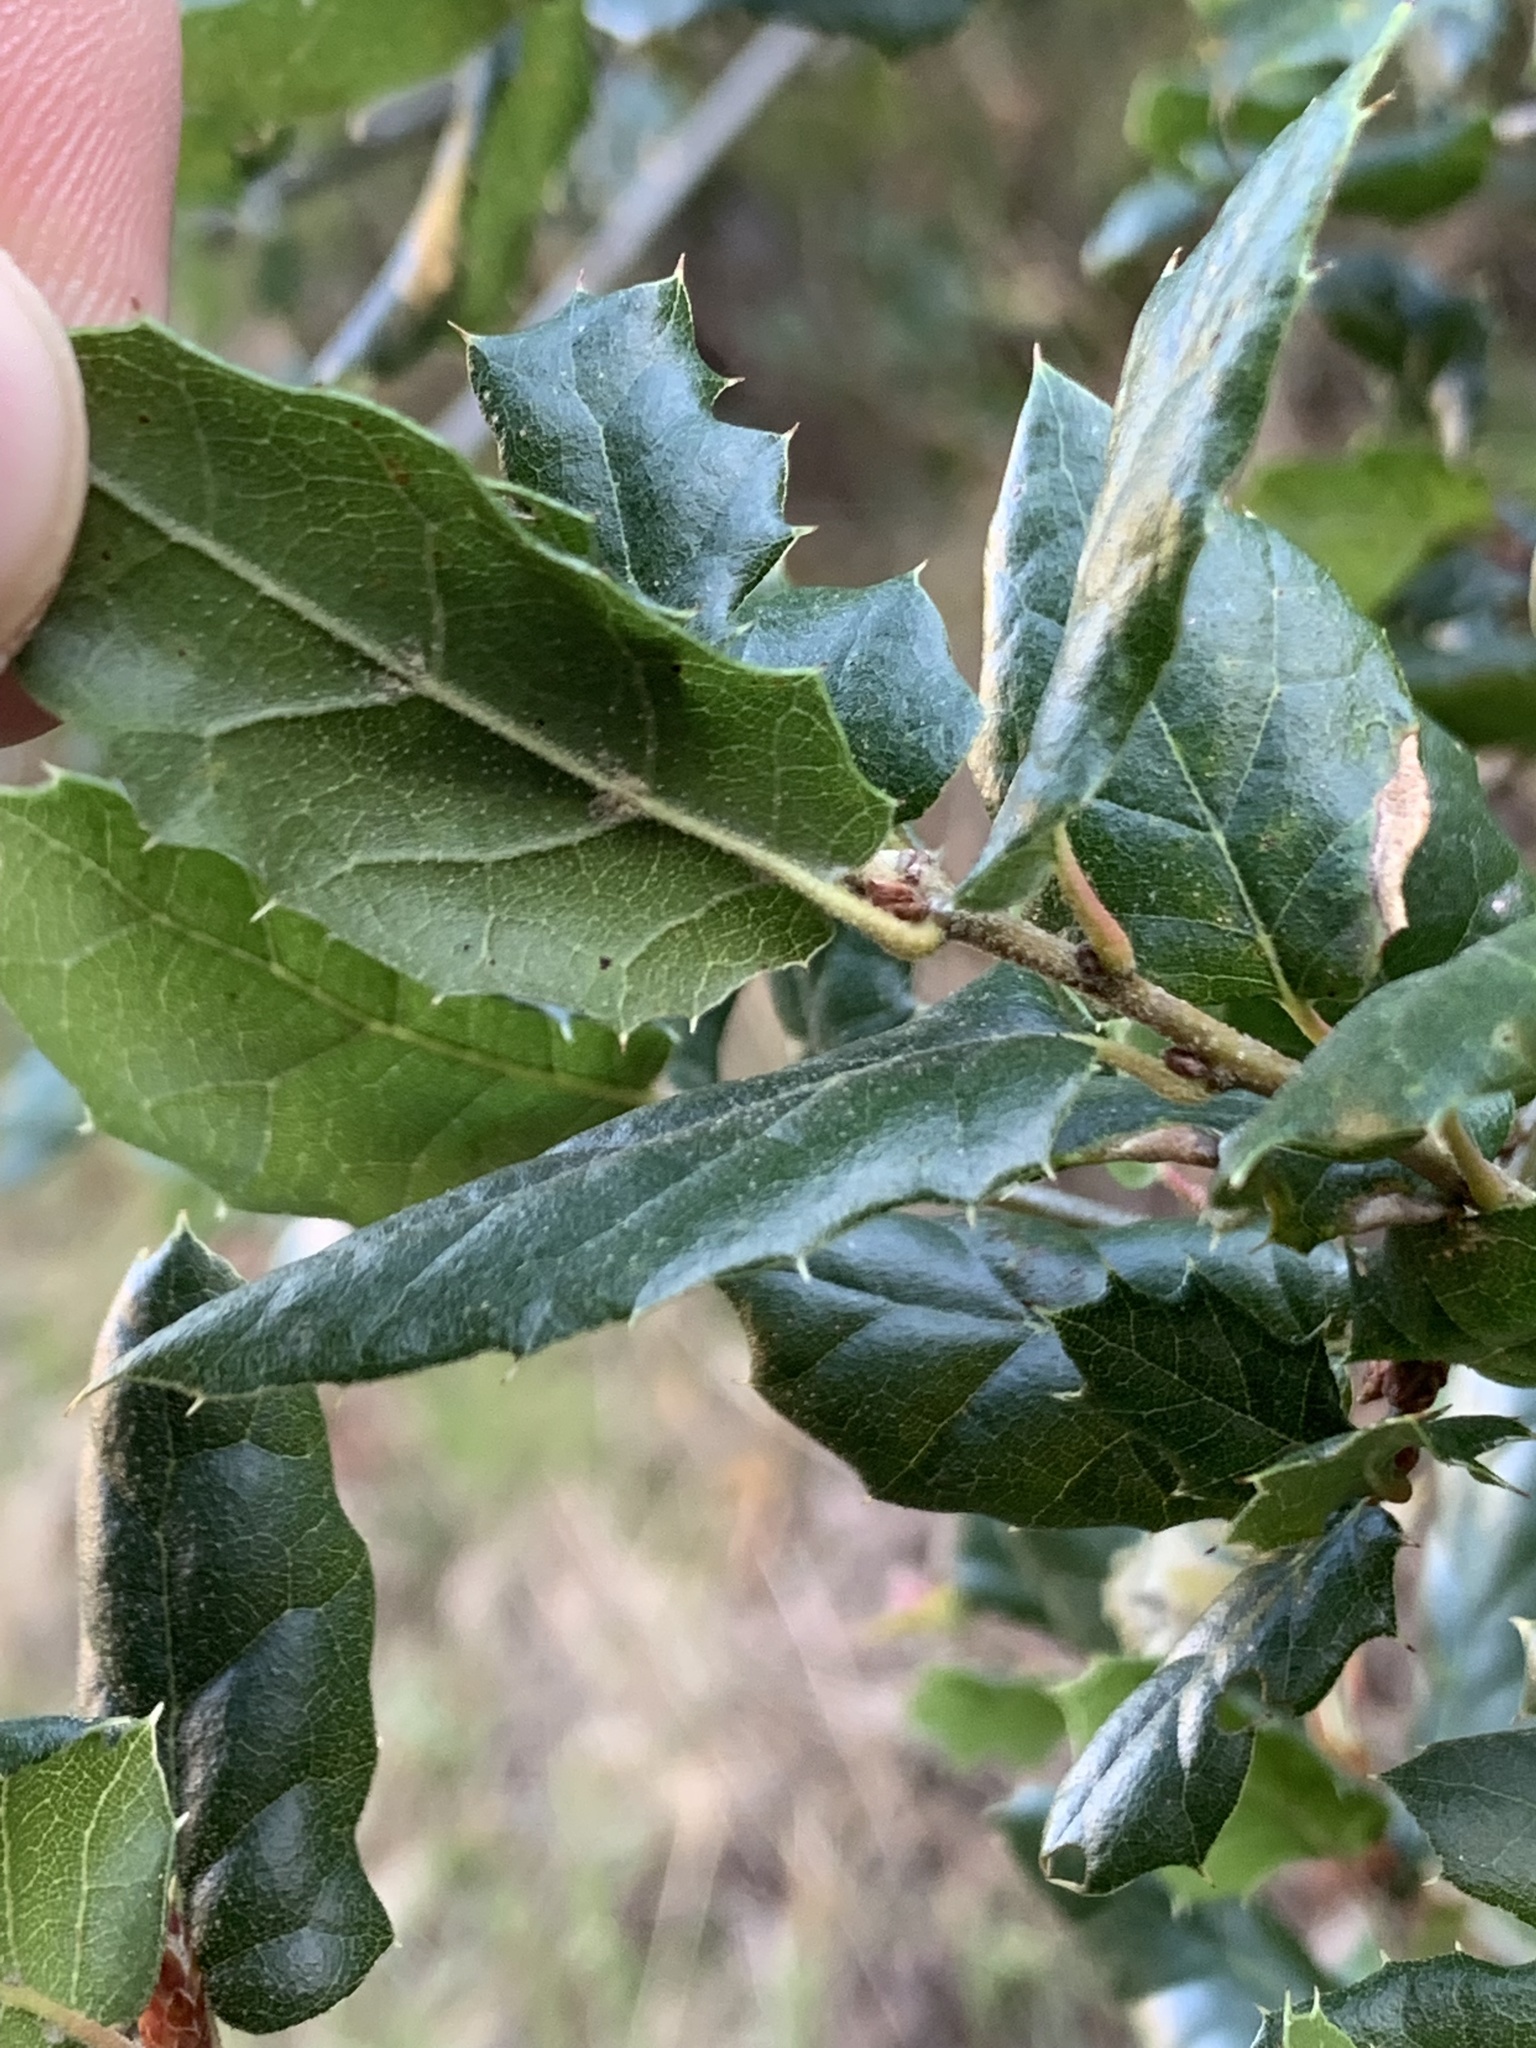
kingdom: Plantae
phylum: Tracheophyta
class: Magnoliopsida
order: Fagales
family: Fagaceae
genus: Quercus
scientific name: Quercus agrifolia
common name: California live oak
